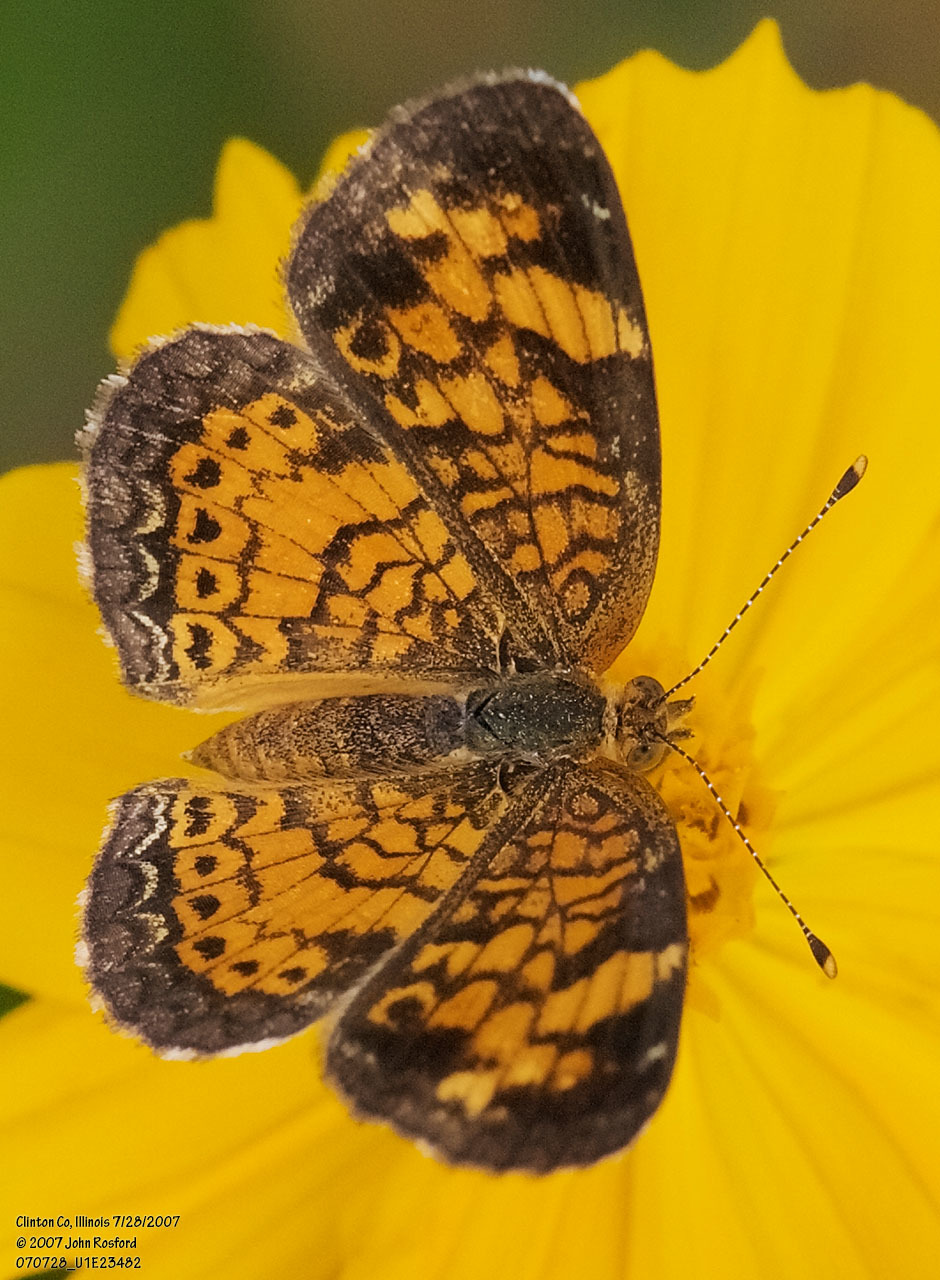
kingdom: Animalia
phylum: Arthropoda
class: Insecta
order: Lepidoptera
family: Nymphalidae
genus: Phyciodes
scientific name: Phyciodes tharos
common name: Pearl crescent
